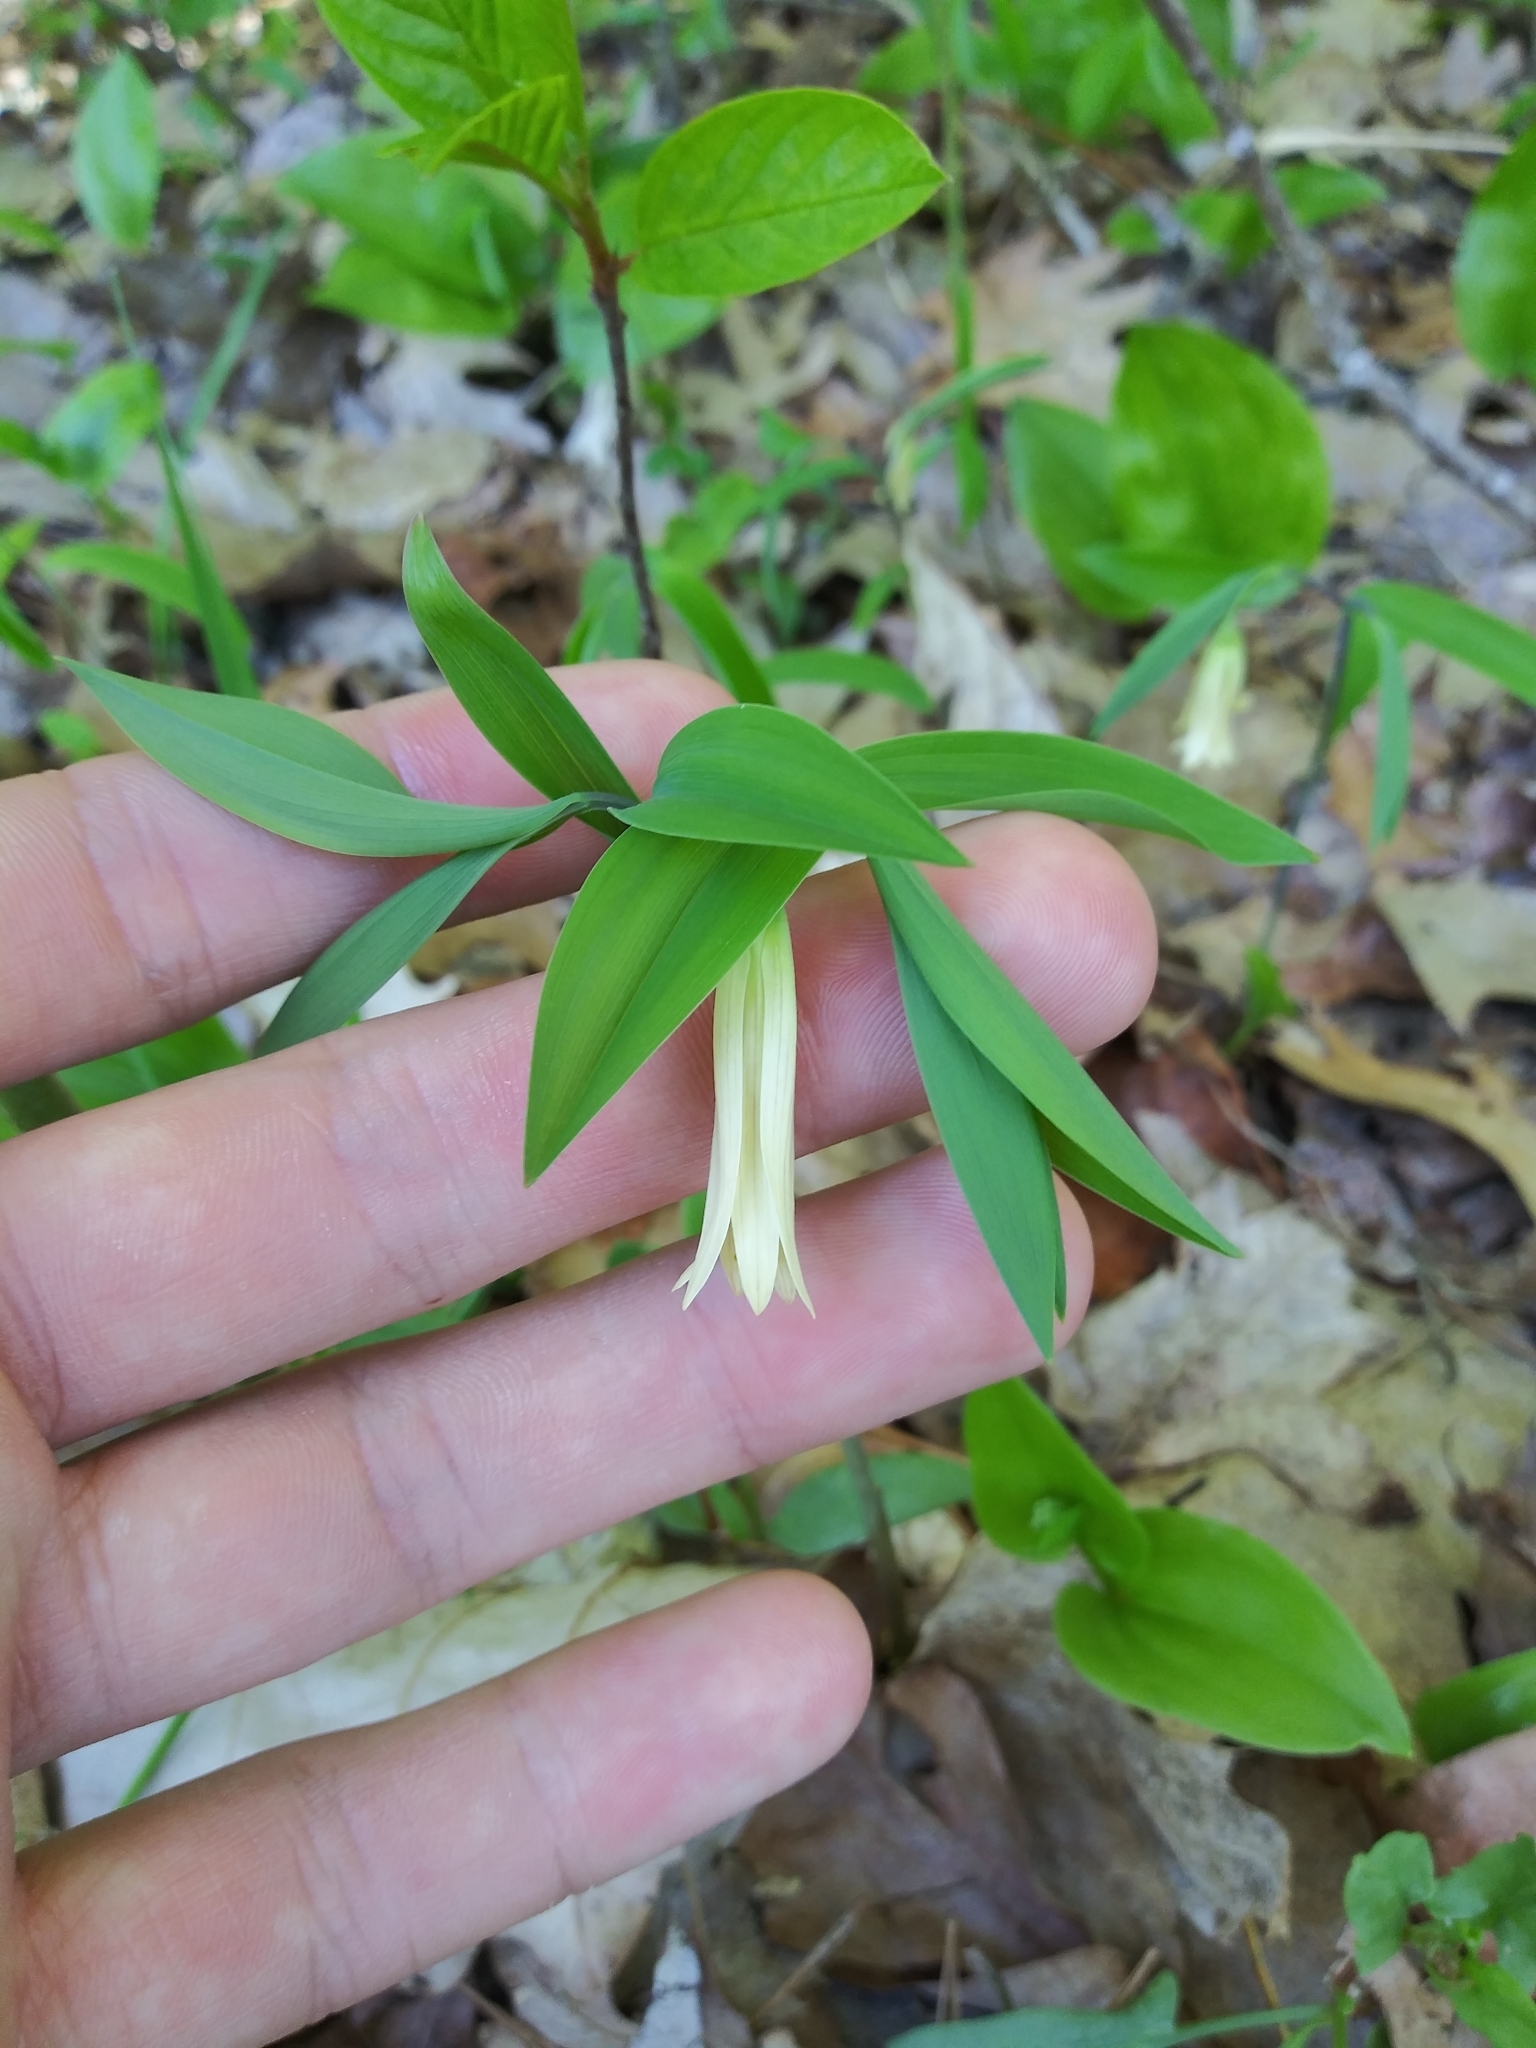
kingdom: Plantae
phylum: Tracheophyta
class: Liliopsida
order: Liliales
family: Colchicaceae
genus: Uvularia
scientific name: Uvularia sessilifolia
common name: Straw-lily
